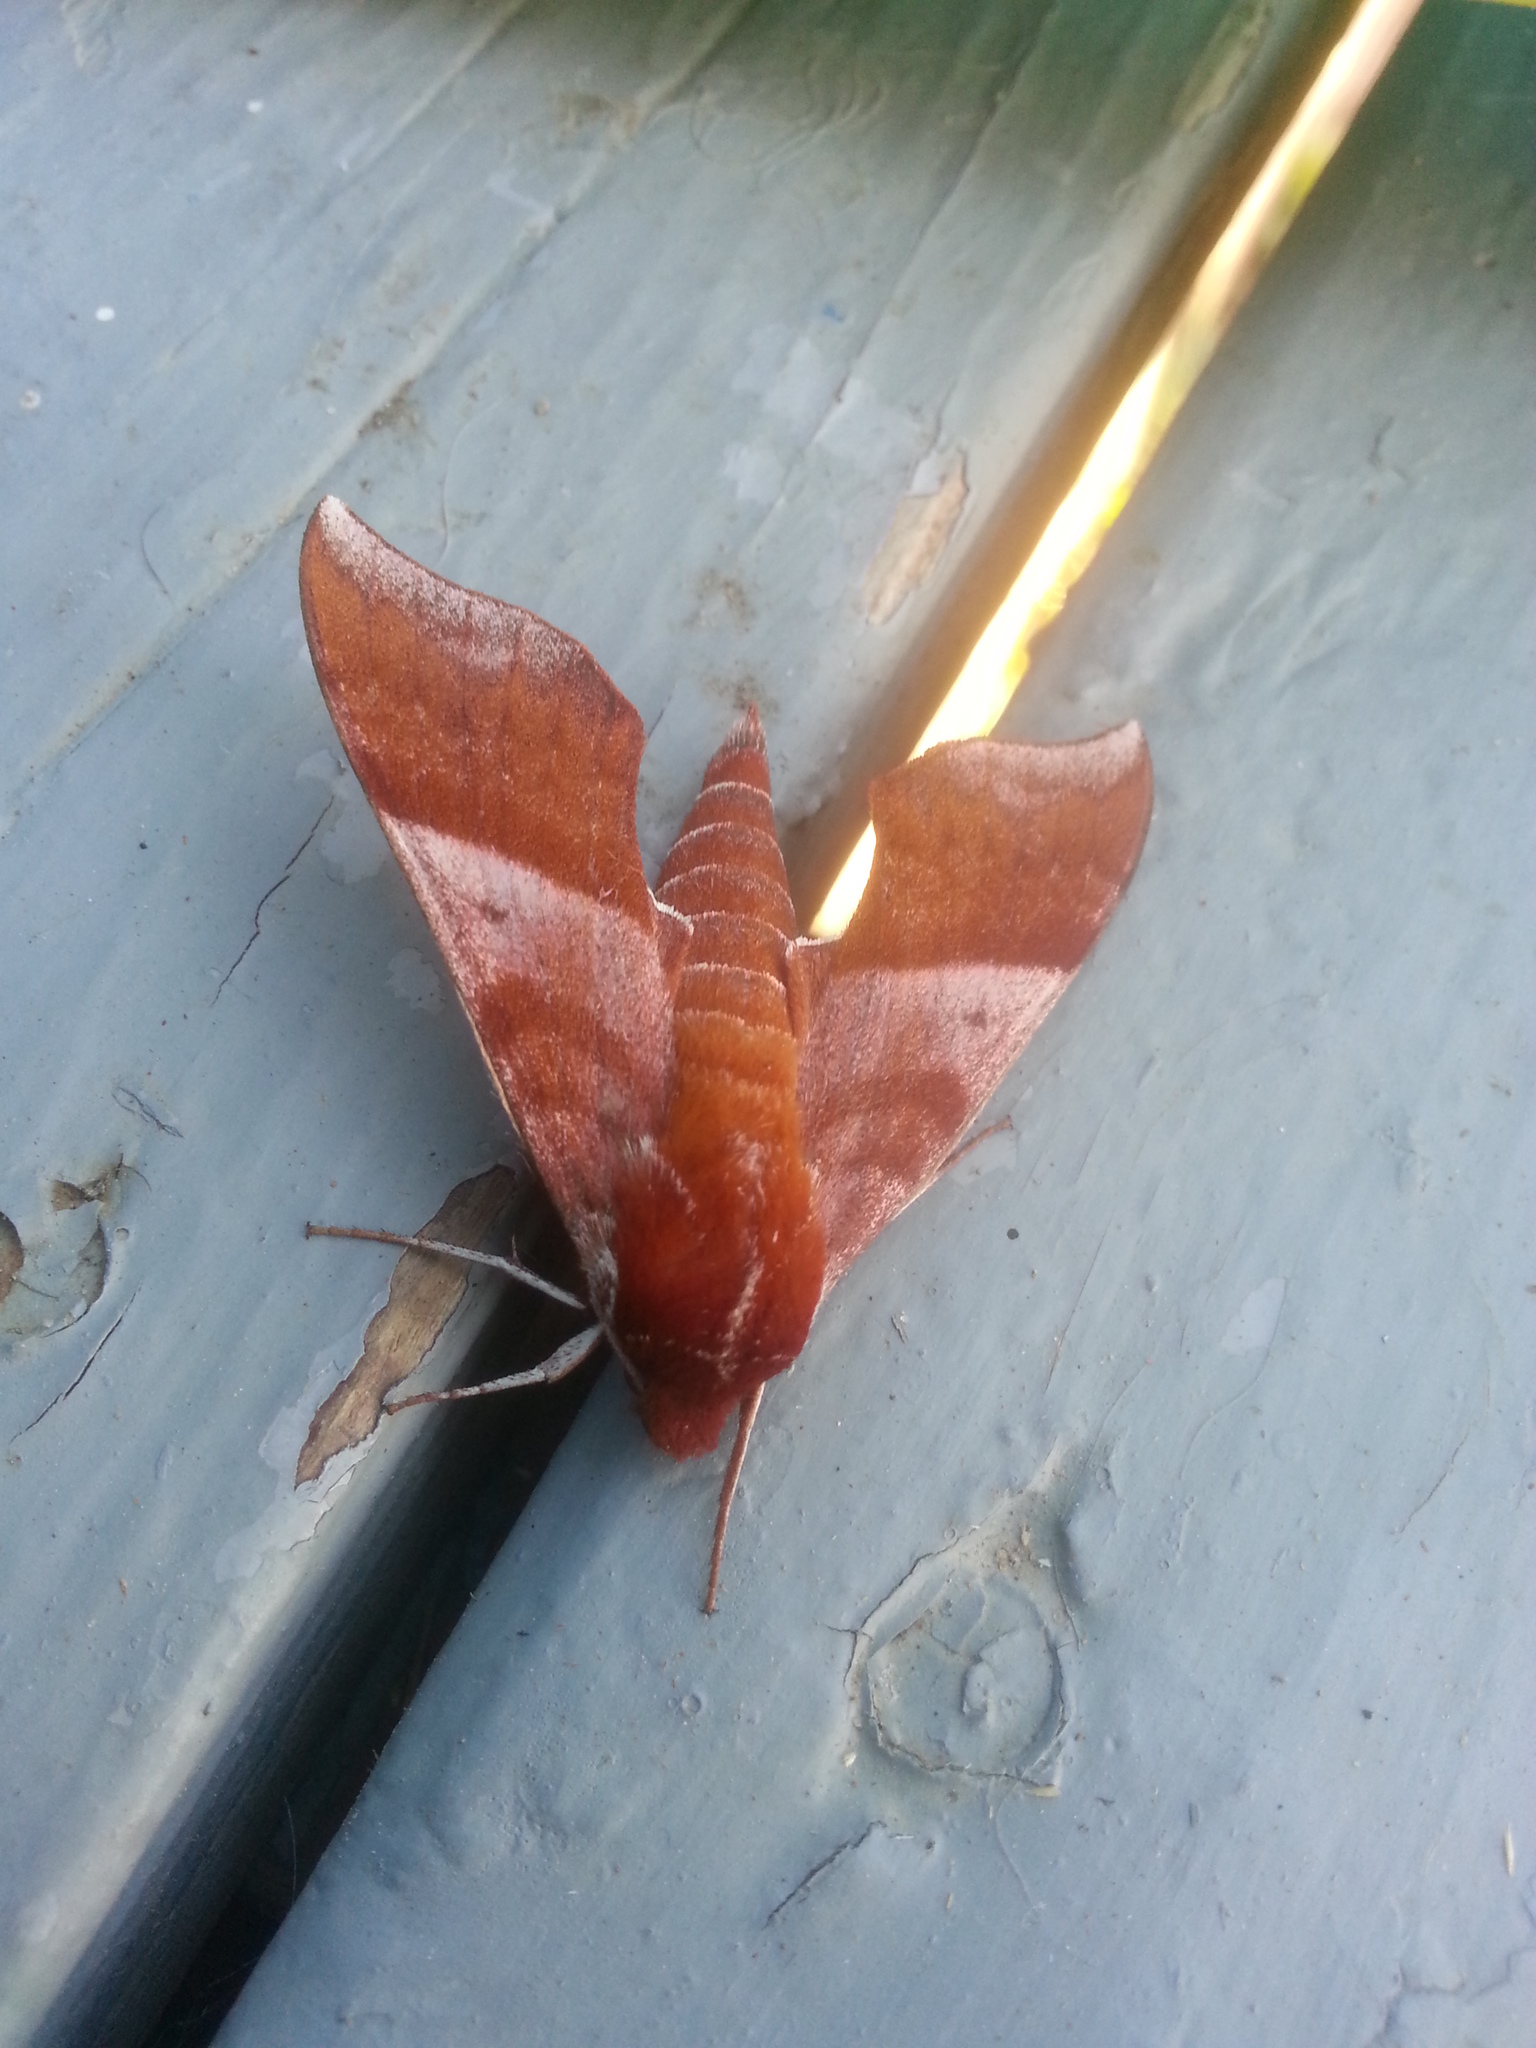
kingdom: Animalia
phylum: Arthropoda
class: Insecta
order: Lepidoptera
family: Sphingidae
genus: Darapsa
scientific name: Darapsa choerilus
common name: Azalea sphinx
